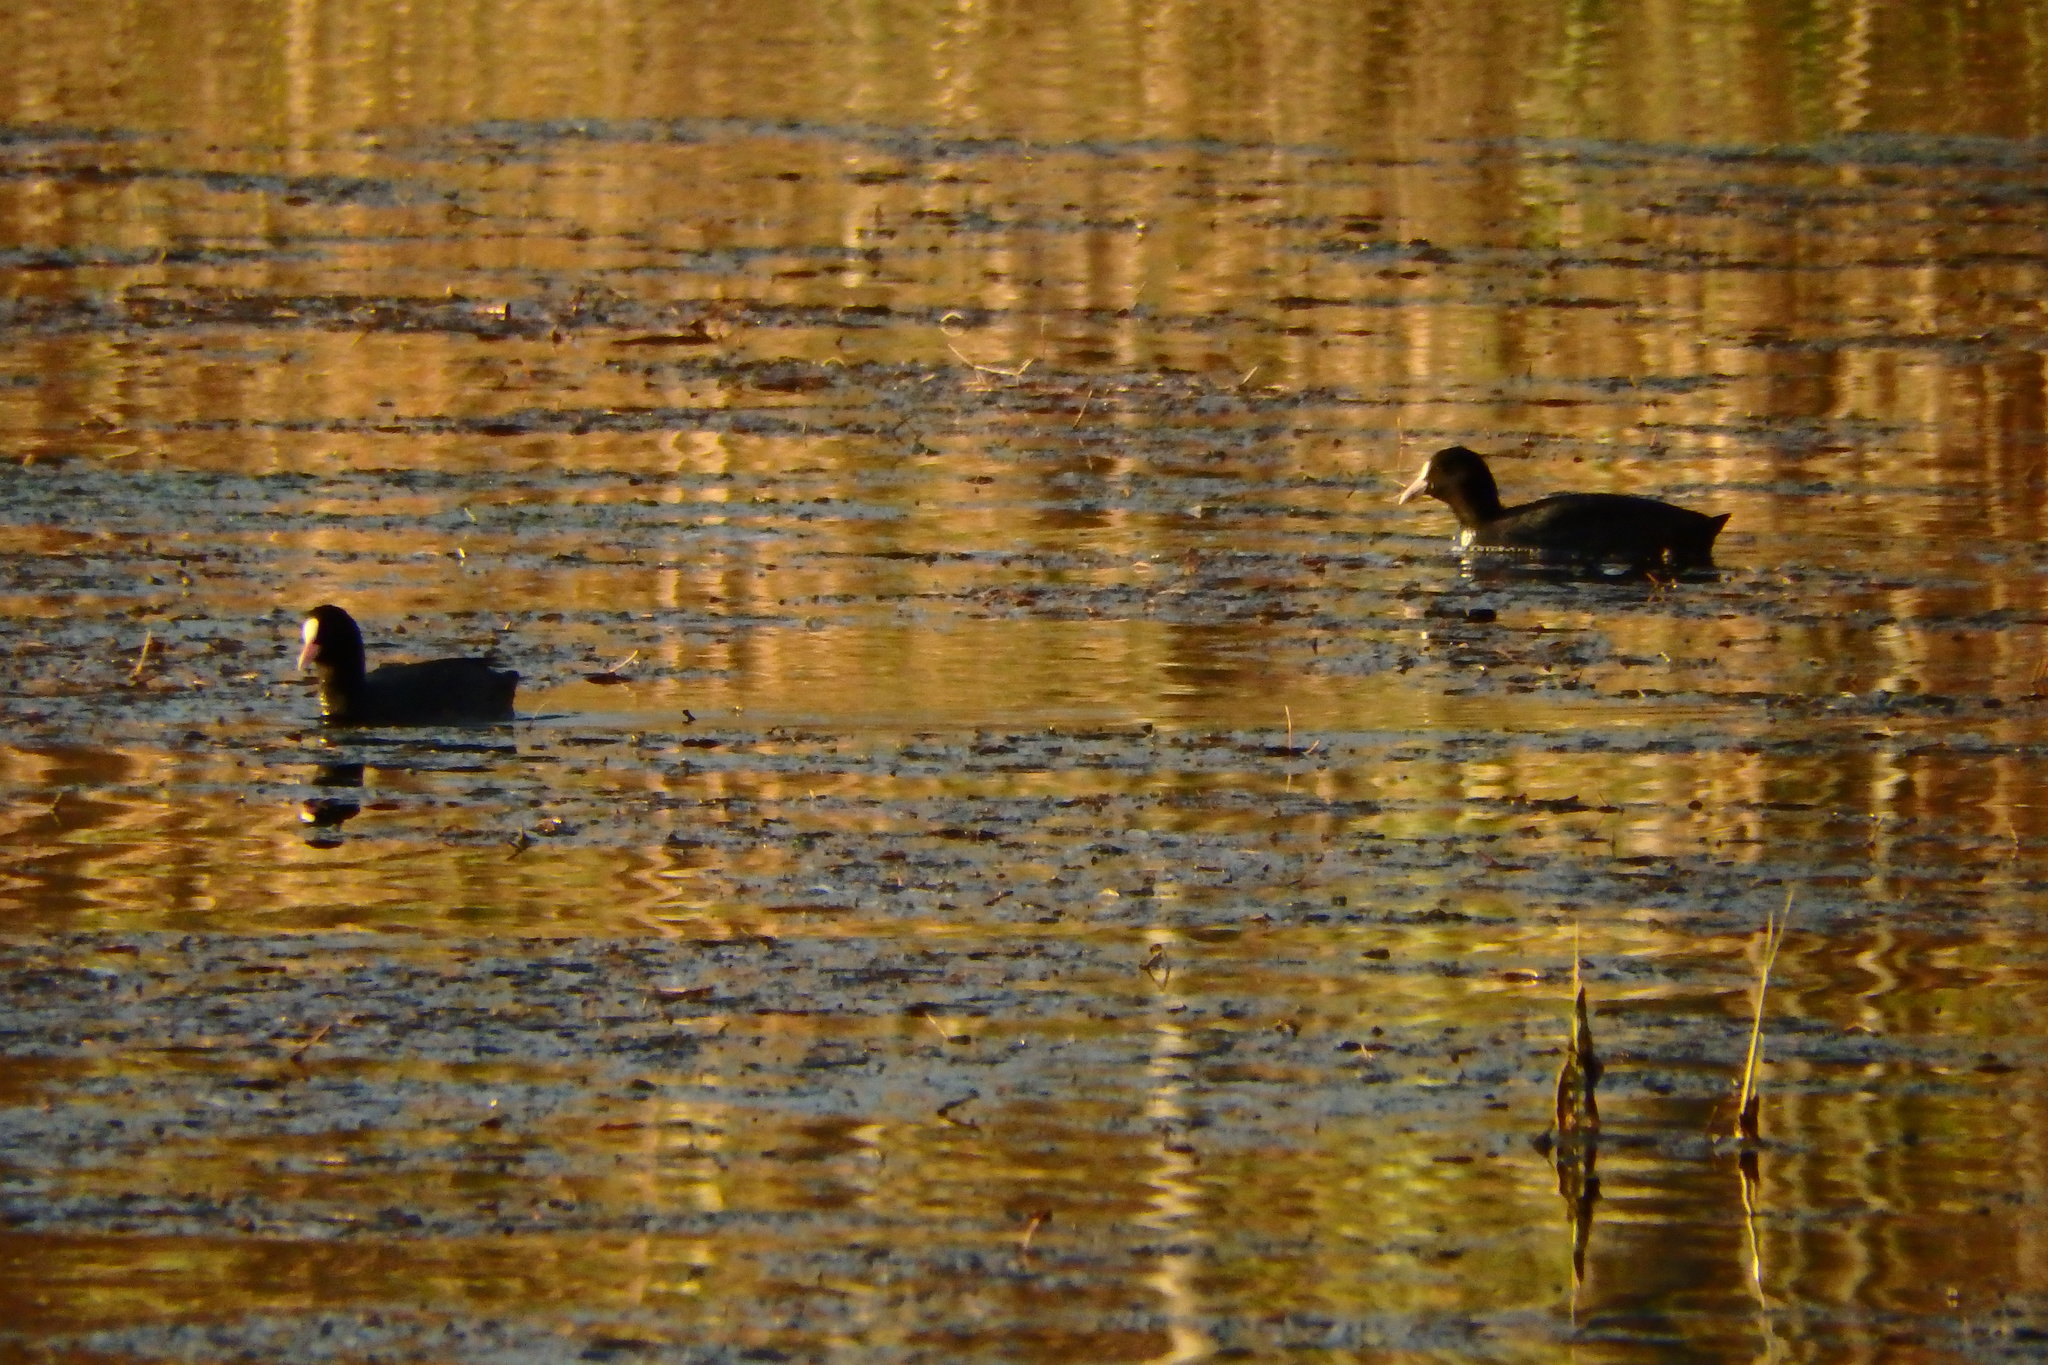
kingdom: Animalia
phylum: Chordata
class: Aves
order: Gruiformes
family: Rallidae
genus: Fulica
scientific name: Fulica atra
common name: Eurasian coot
